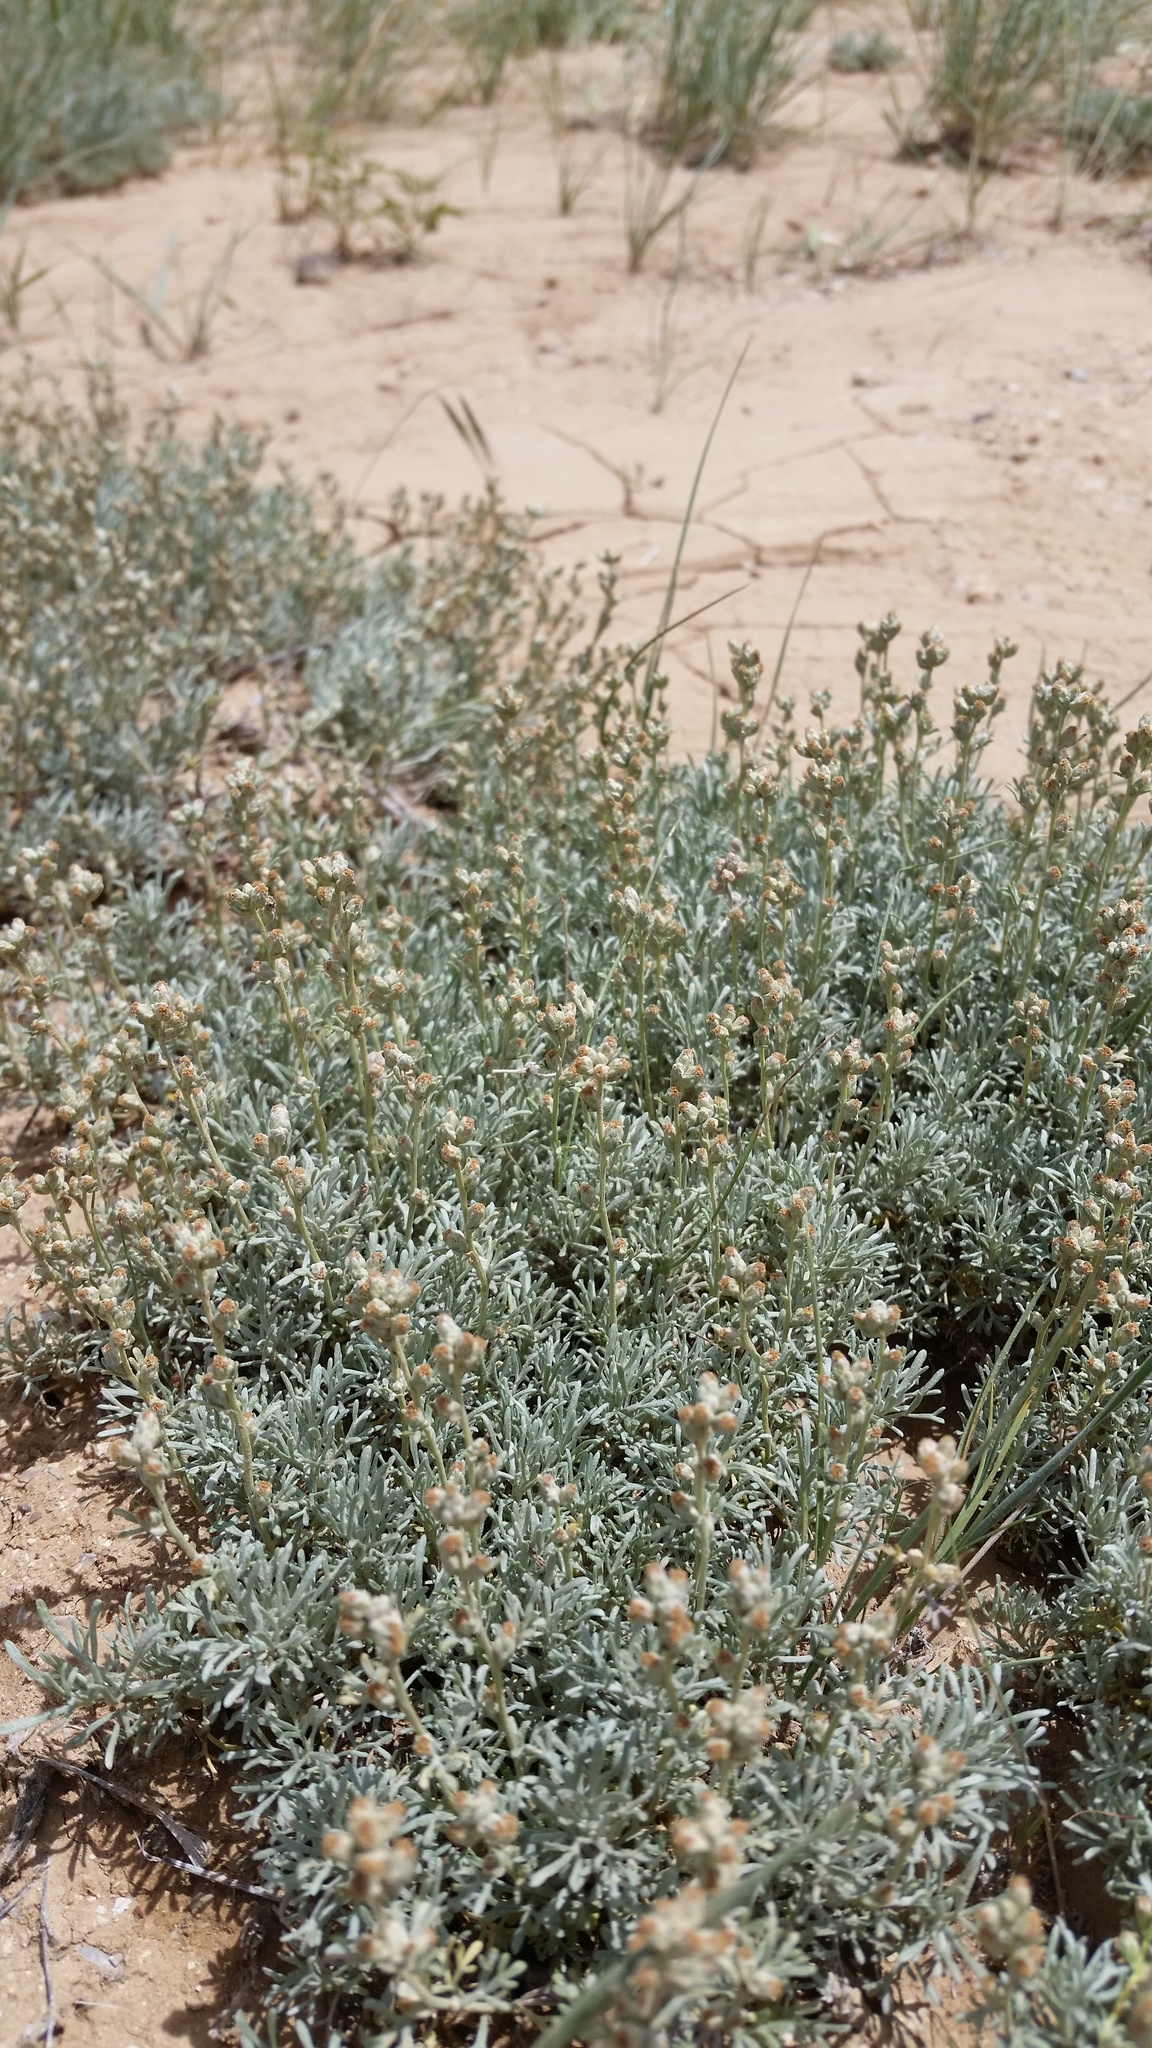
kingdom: Plantae
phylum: Tracheophyta
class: Magnoliopsida
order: Asterales
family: Asteraceae
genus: Artemisia
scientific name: Artemisia pedatifida
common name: Matted sagewort
